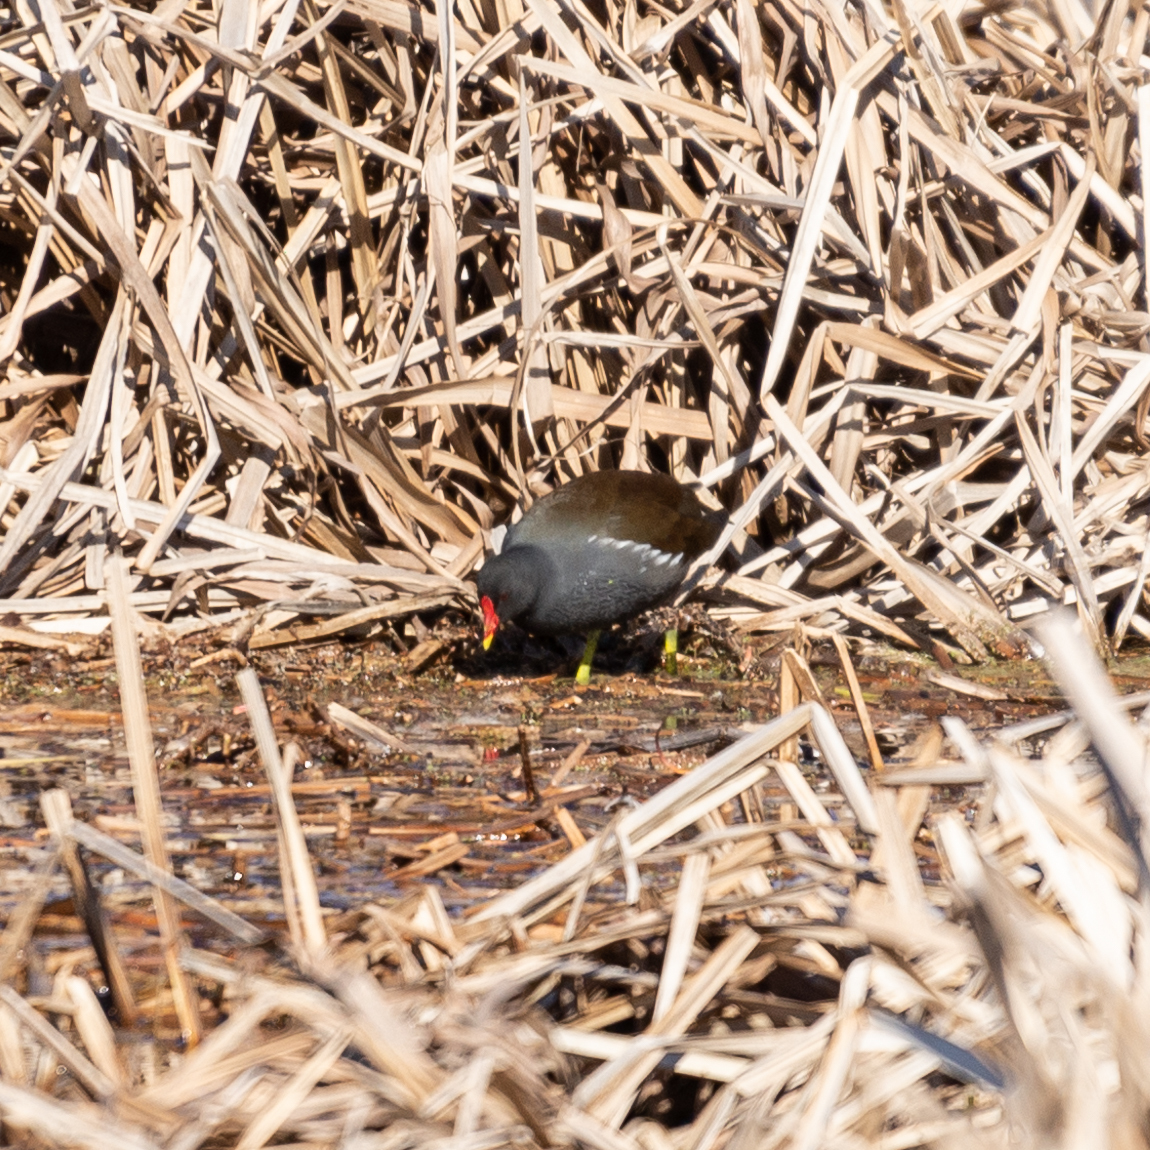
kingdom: Animalia
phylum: Chordata
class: Aves
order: Gruiformes
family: Rallidae
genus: Gallinula
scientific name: Gallinula chloropus
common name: Common moorhen
